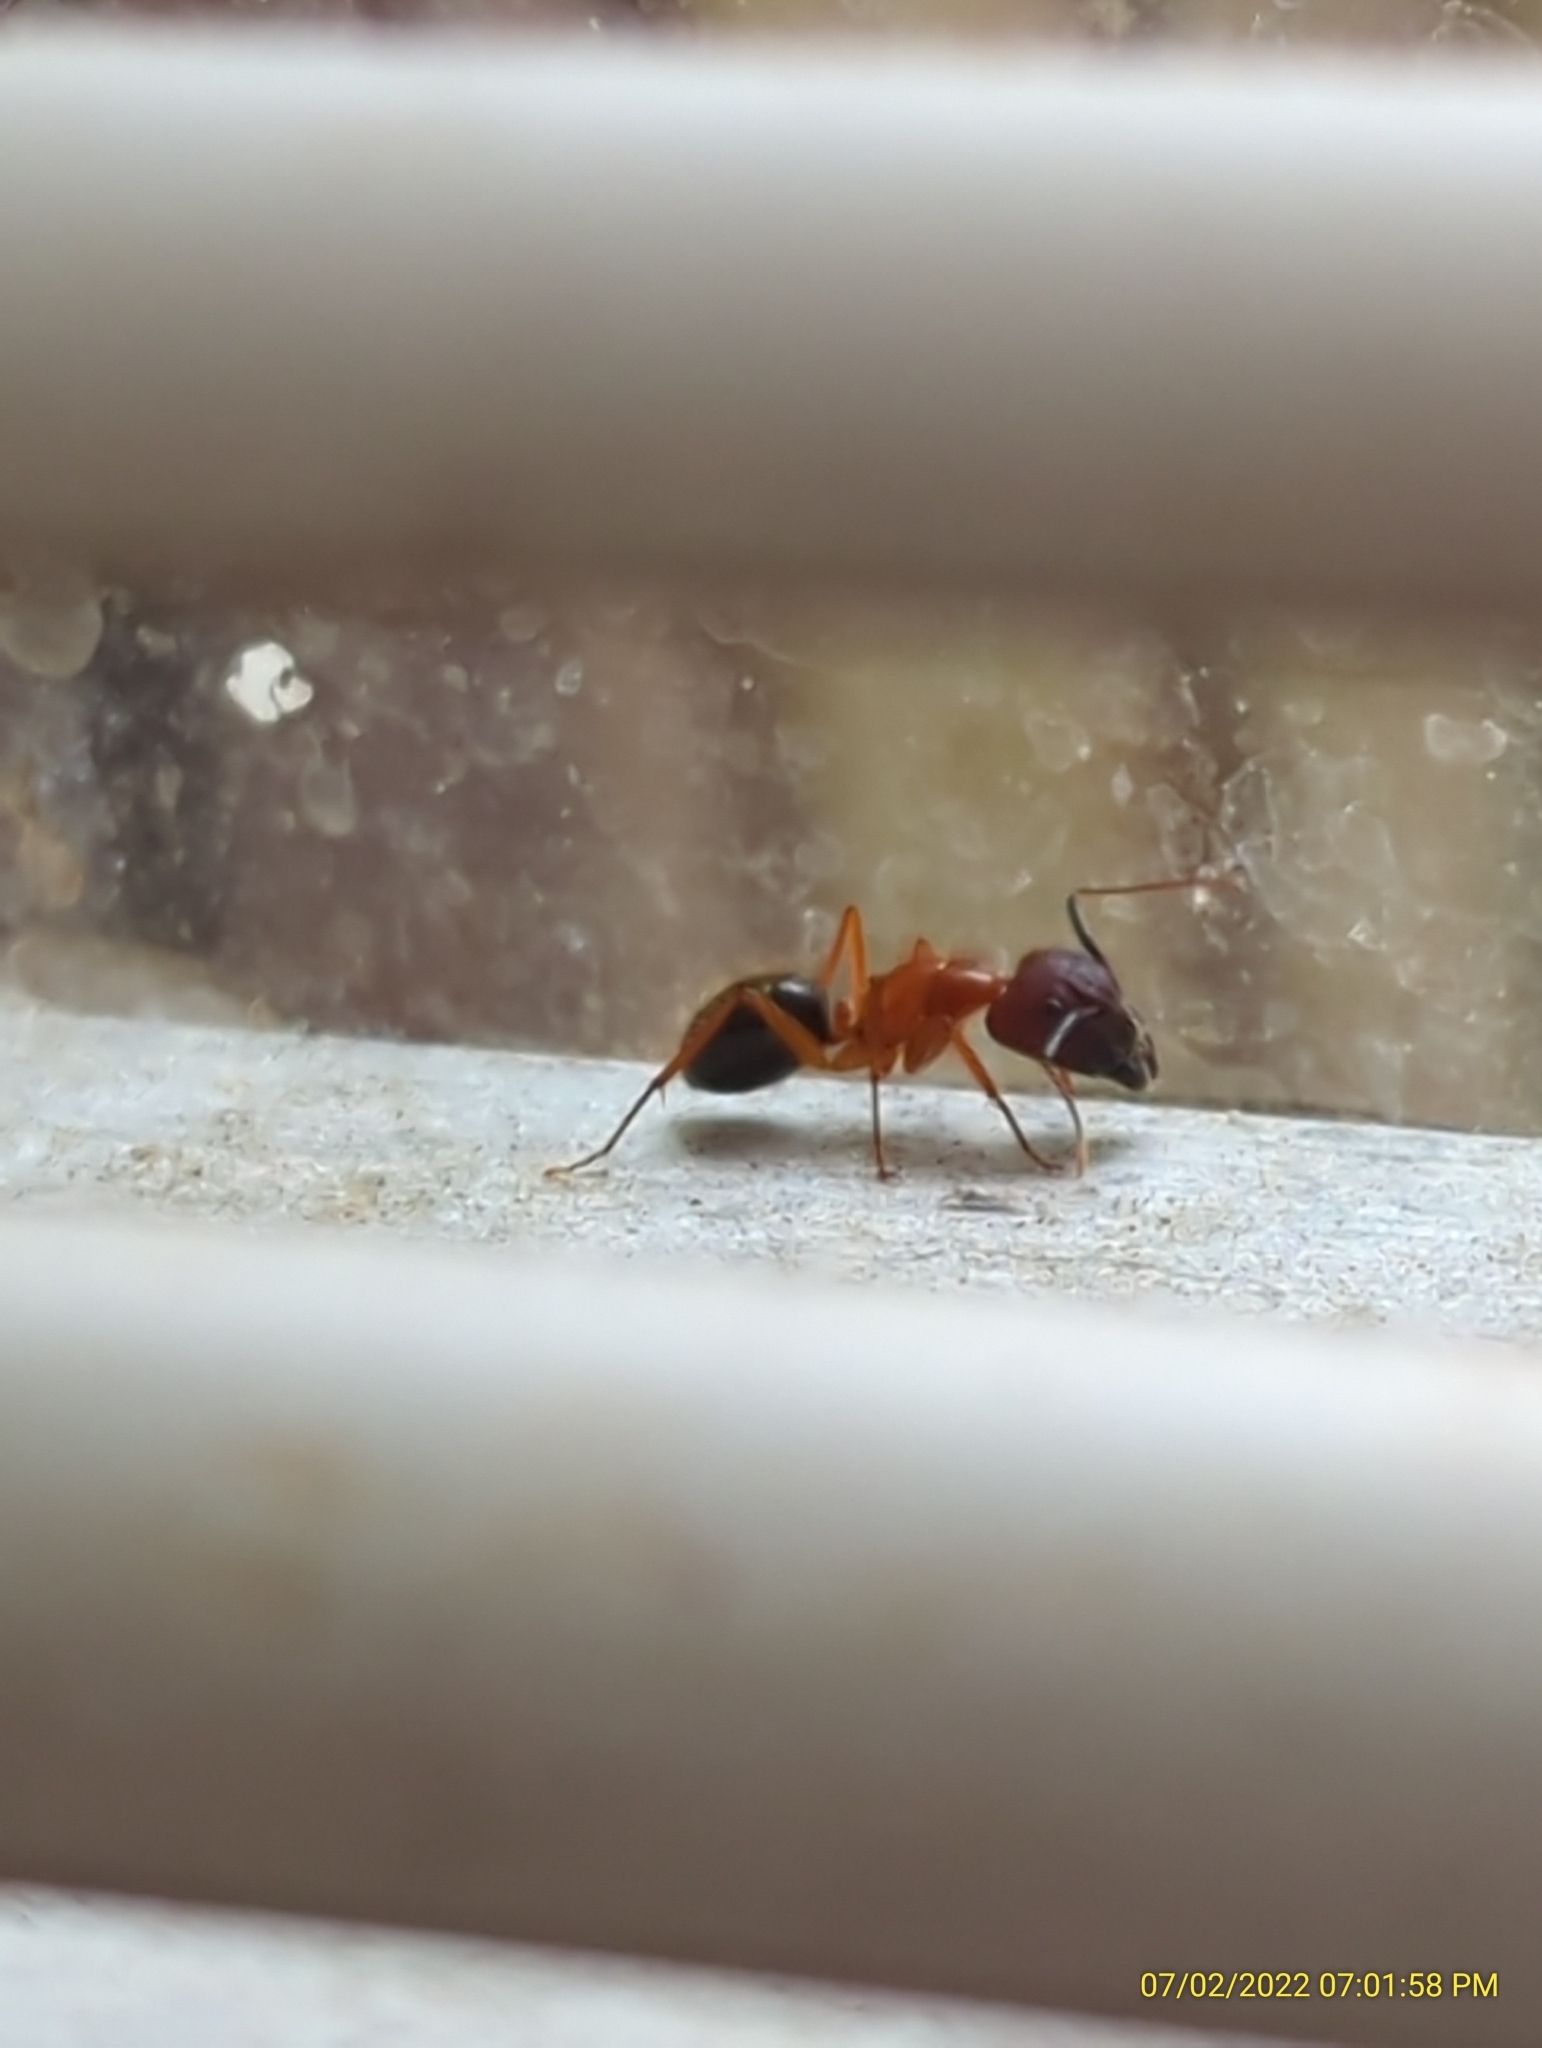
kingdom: Animalia
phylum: Arthropoda
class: Insecta
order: Hymenoptera
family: Formicidae
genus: Camponotus
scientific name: Camponotus floridanus
